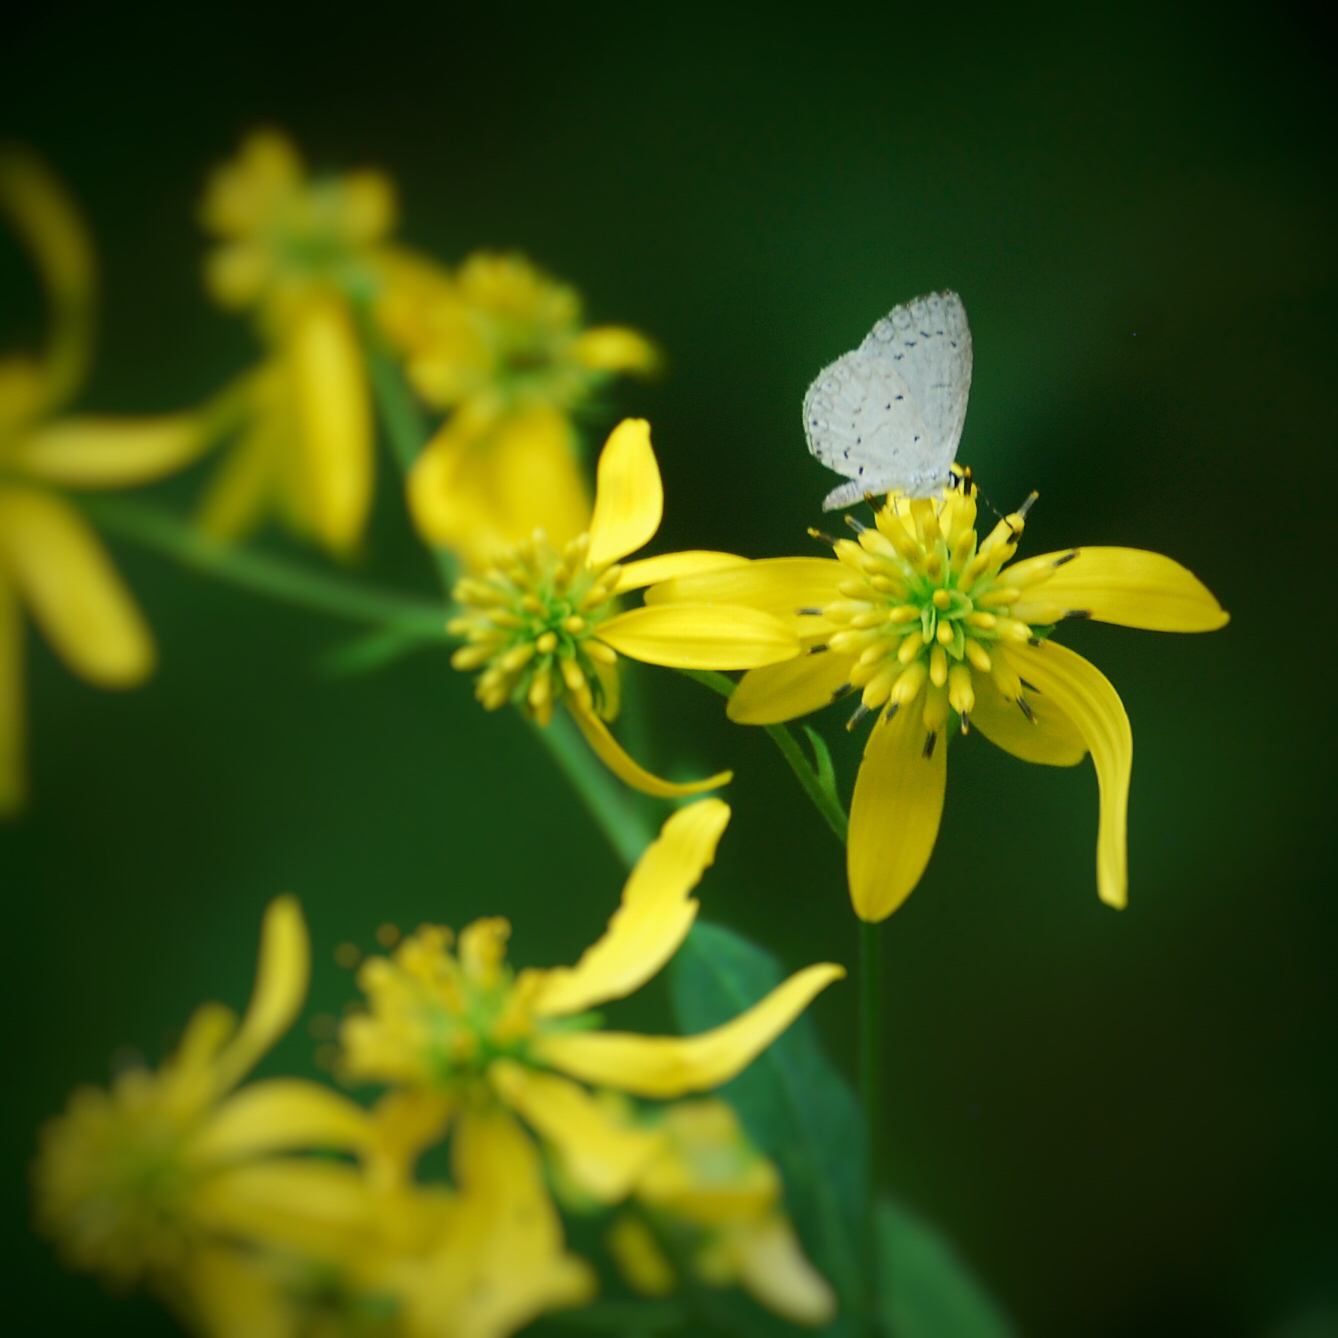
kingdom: Animalia
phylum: Arthropoda
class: Insecta
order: Lepidoptera
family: Lycaenidae
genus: Cyaniris
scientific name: Cyaniris neglecta
